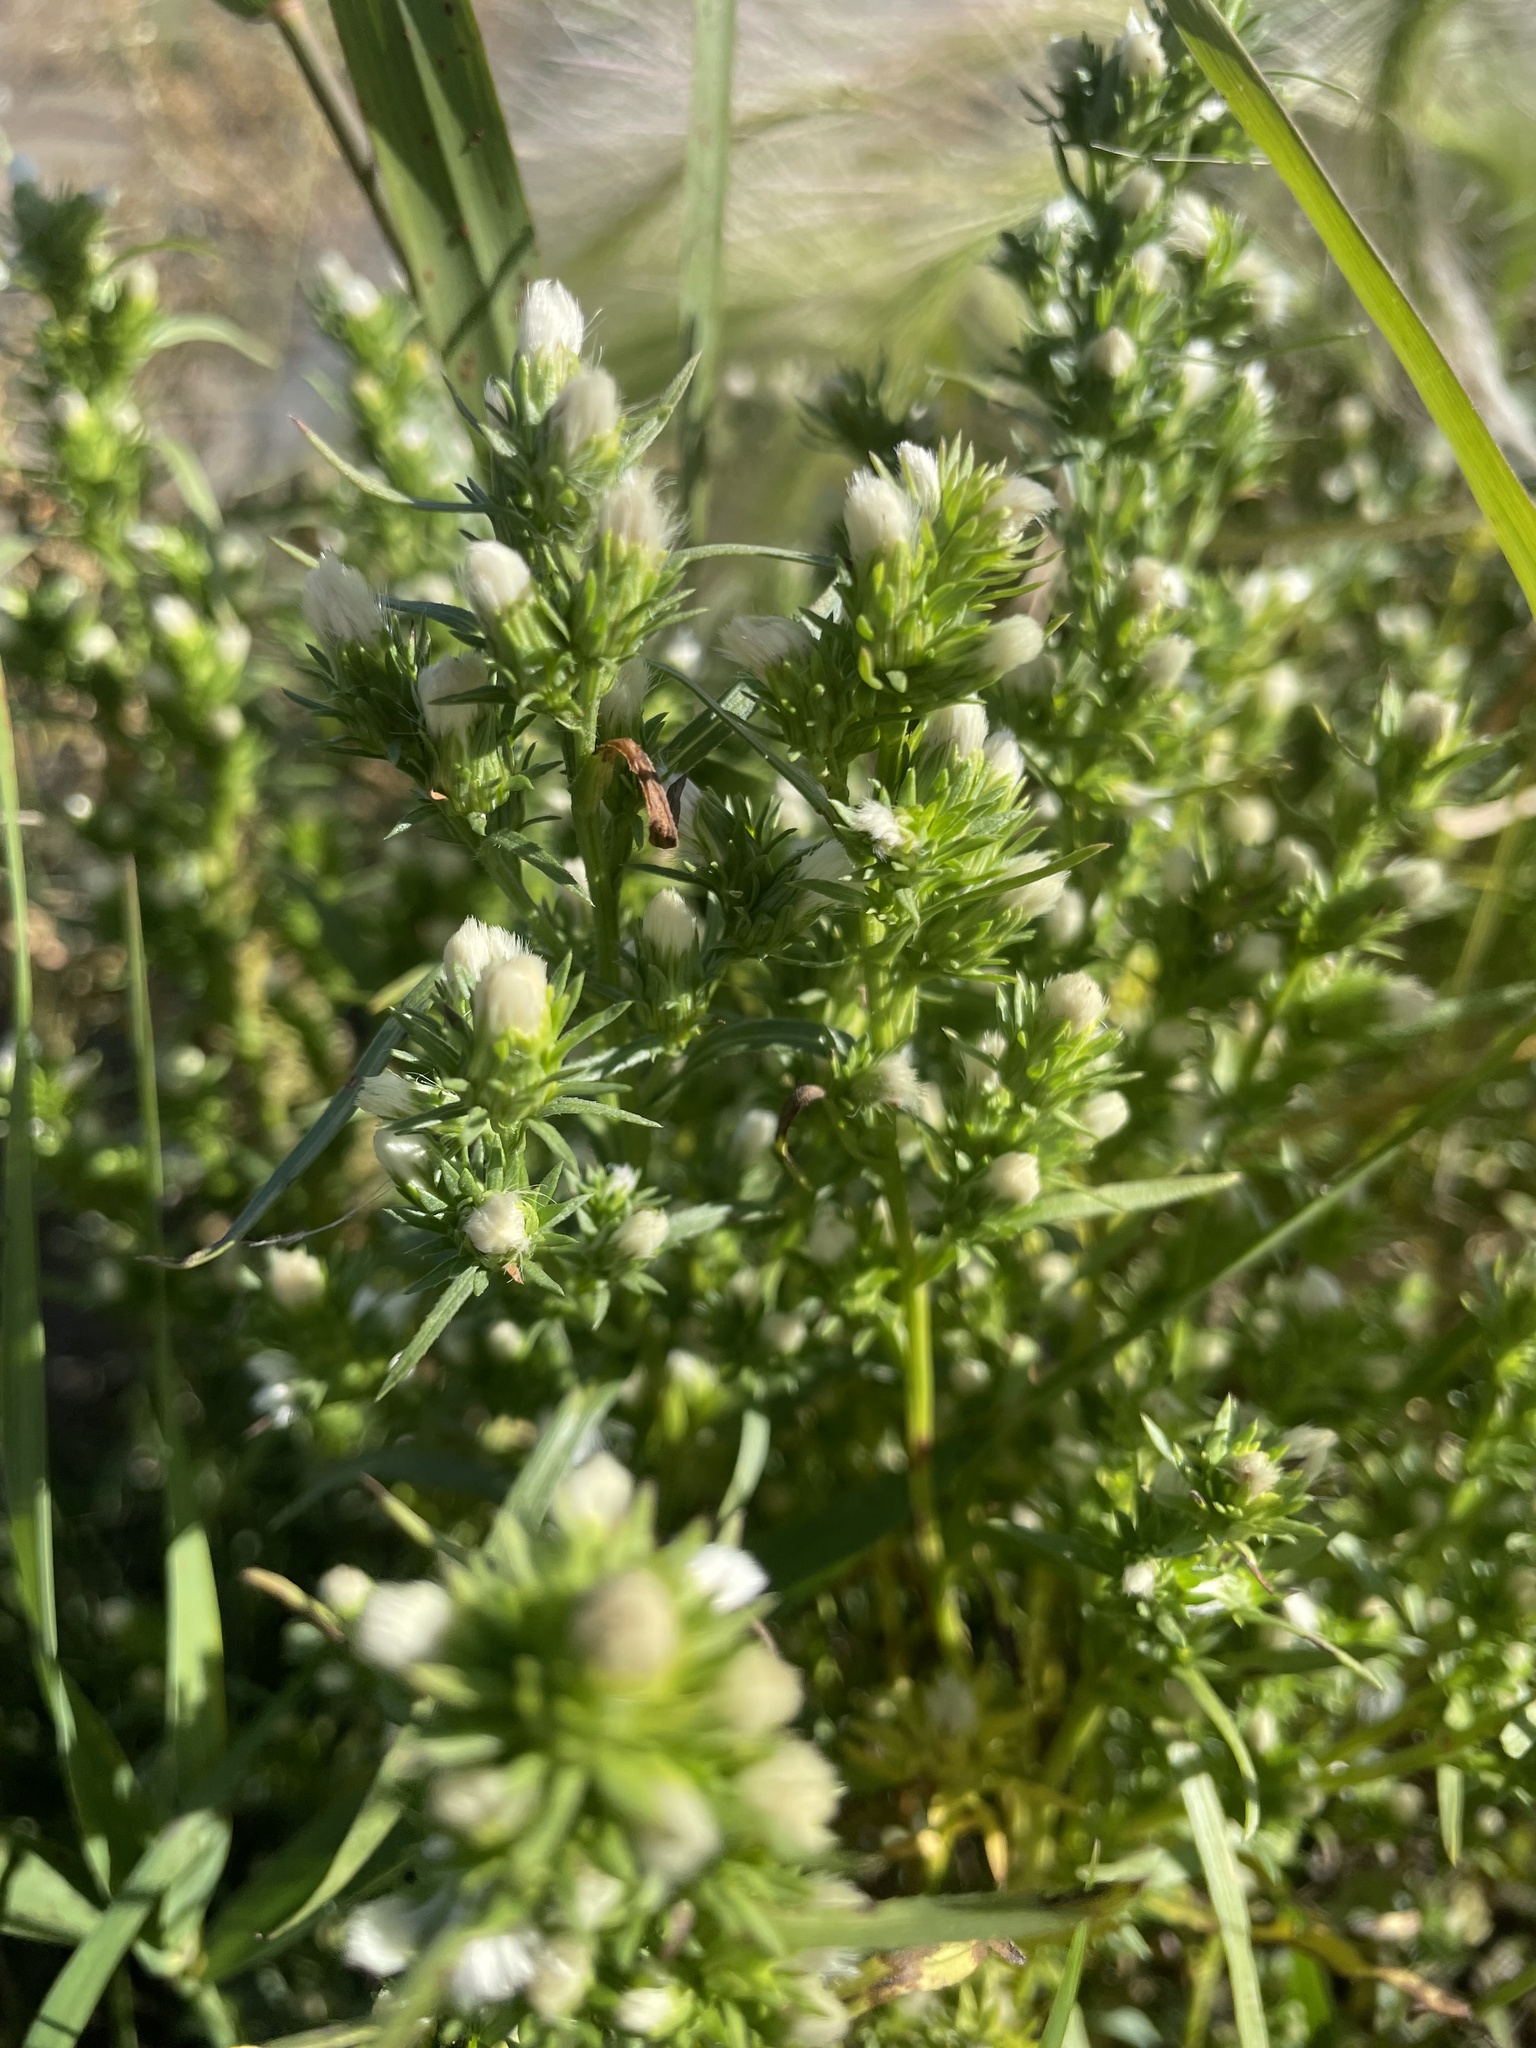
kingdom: Plantae
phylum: Tracheophyta
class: Magnoliopsida
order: Asterales
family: Asteraceae
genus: Symphyotrichum
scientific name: Symphyotrichum ciliatum
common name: Rayless annual aster
